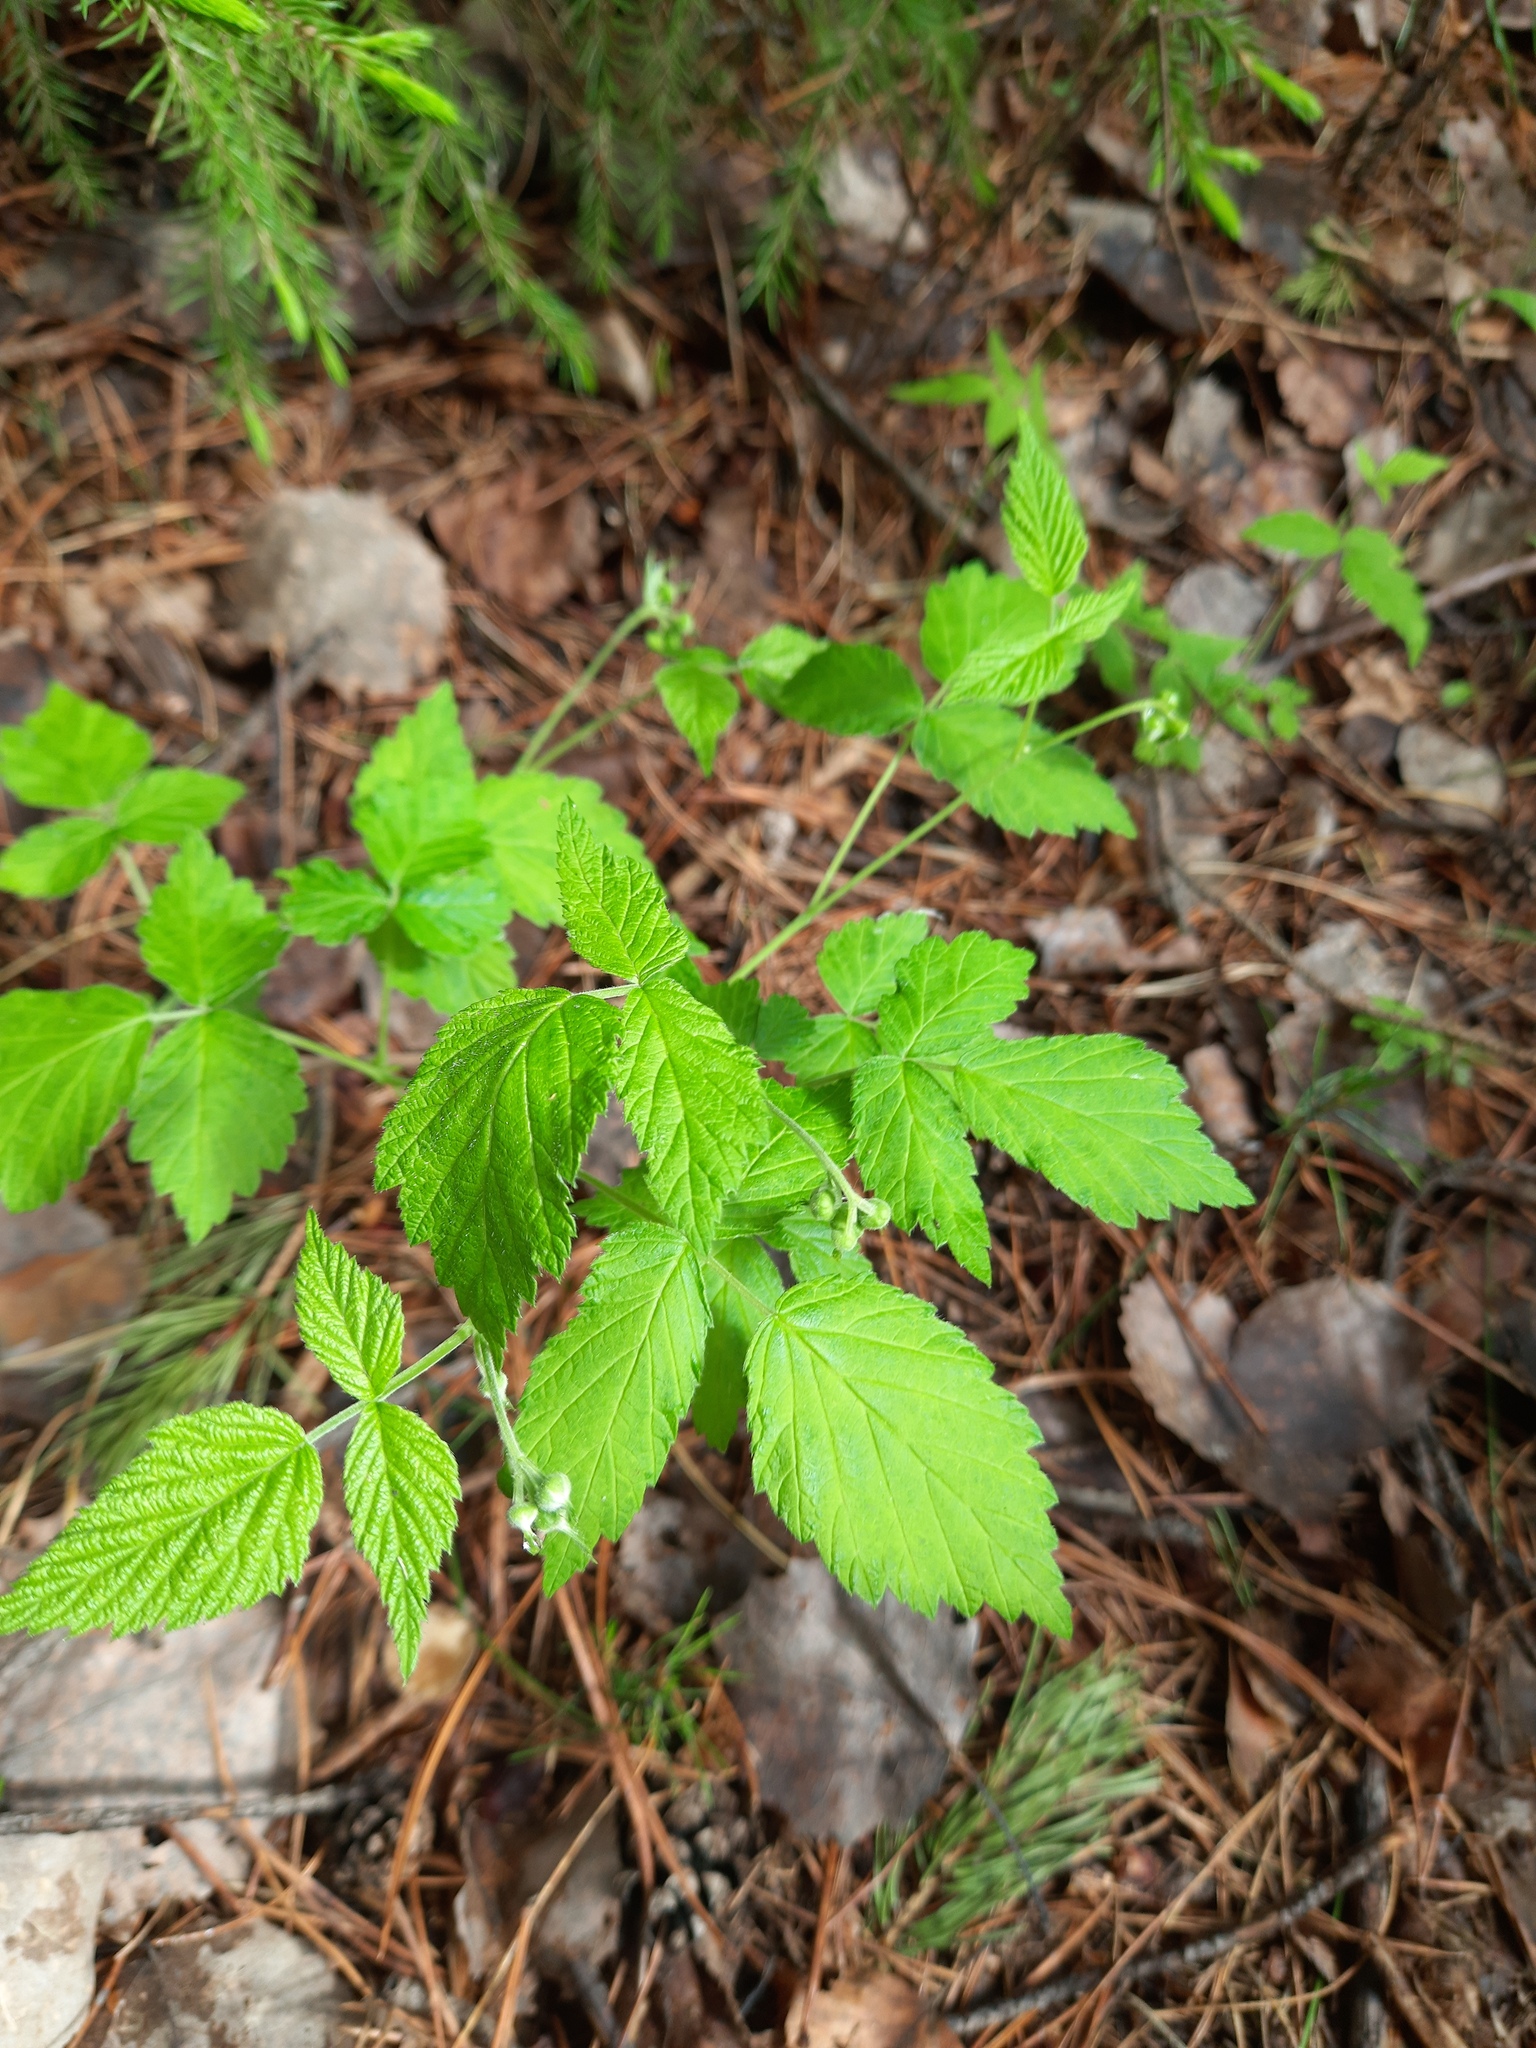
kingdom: Plantae
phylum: Tracheophyta
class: Magnoliopsida
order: Rosales
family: Rosaceae
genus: Rubus
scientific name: Rubus idaeus
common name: Raspberry
